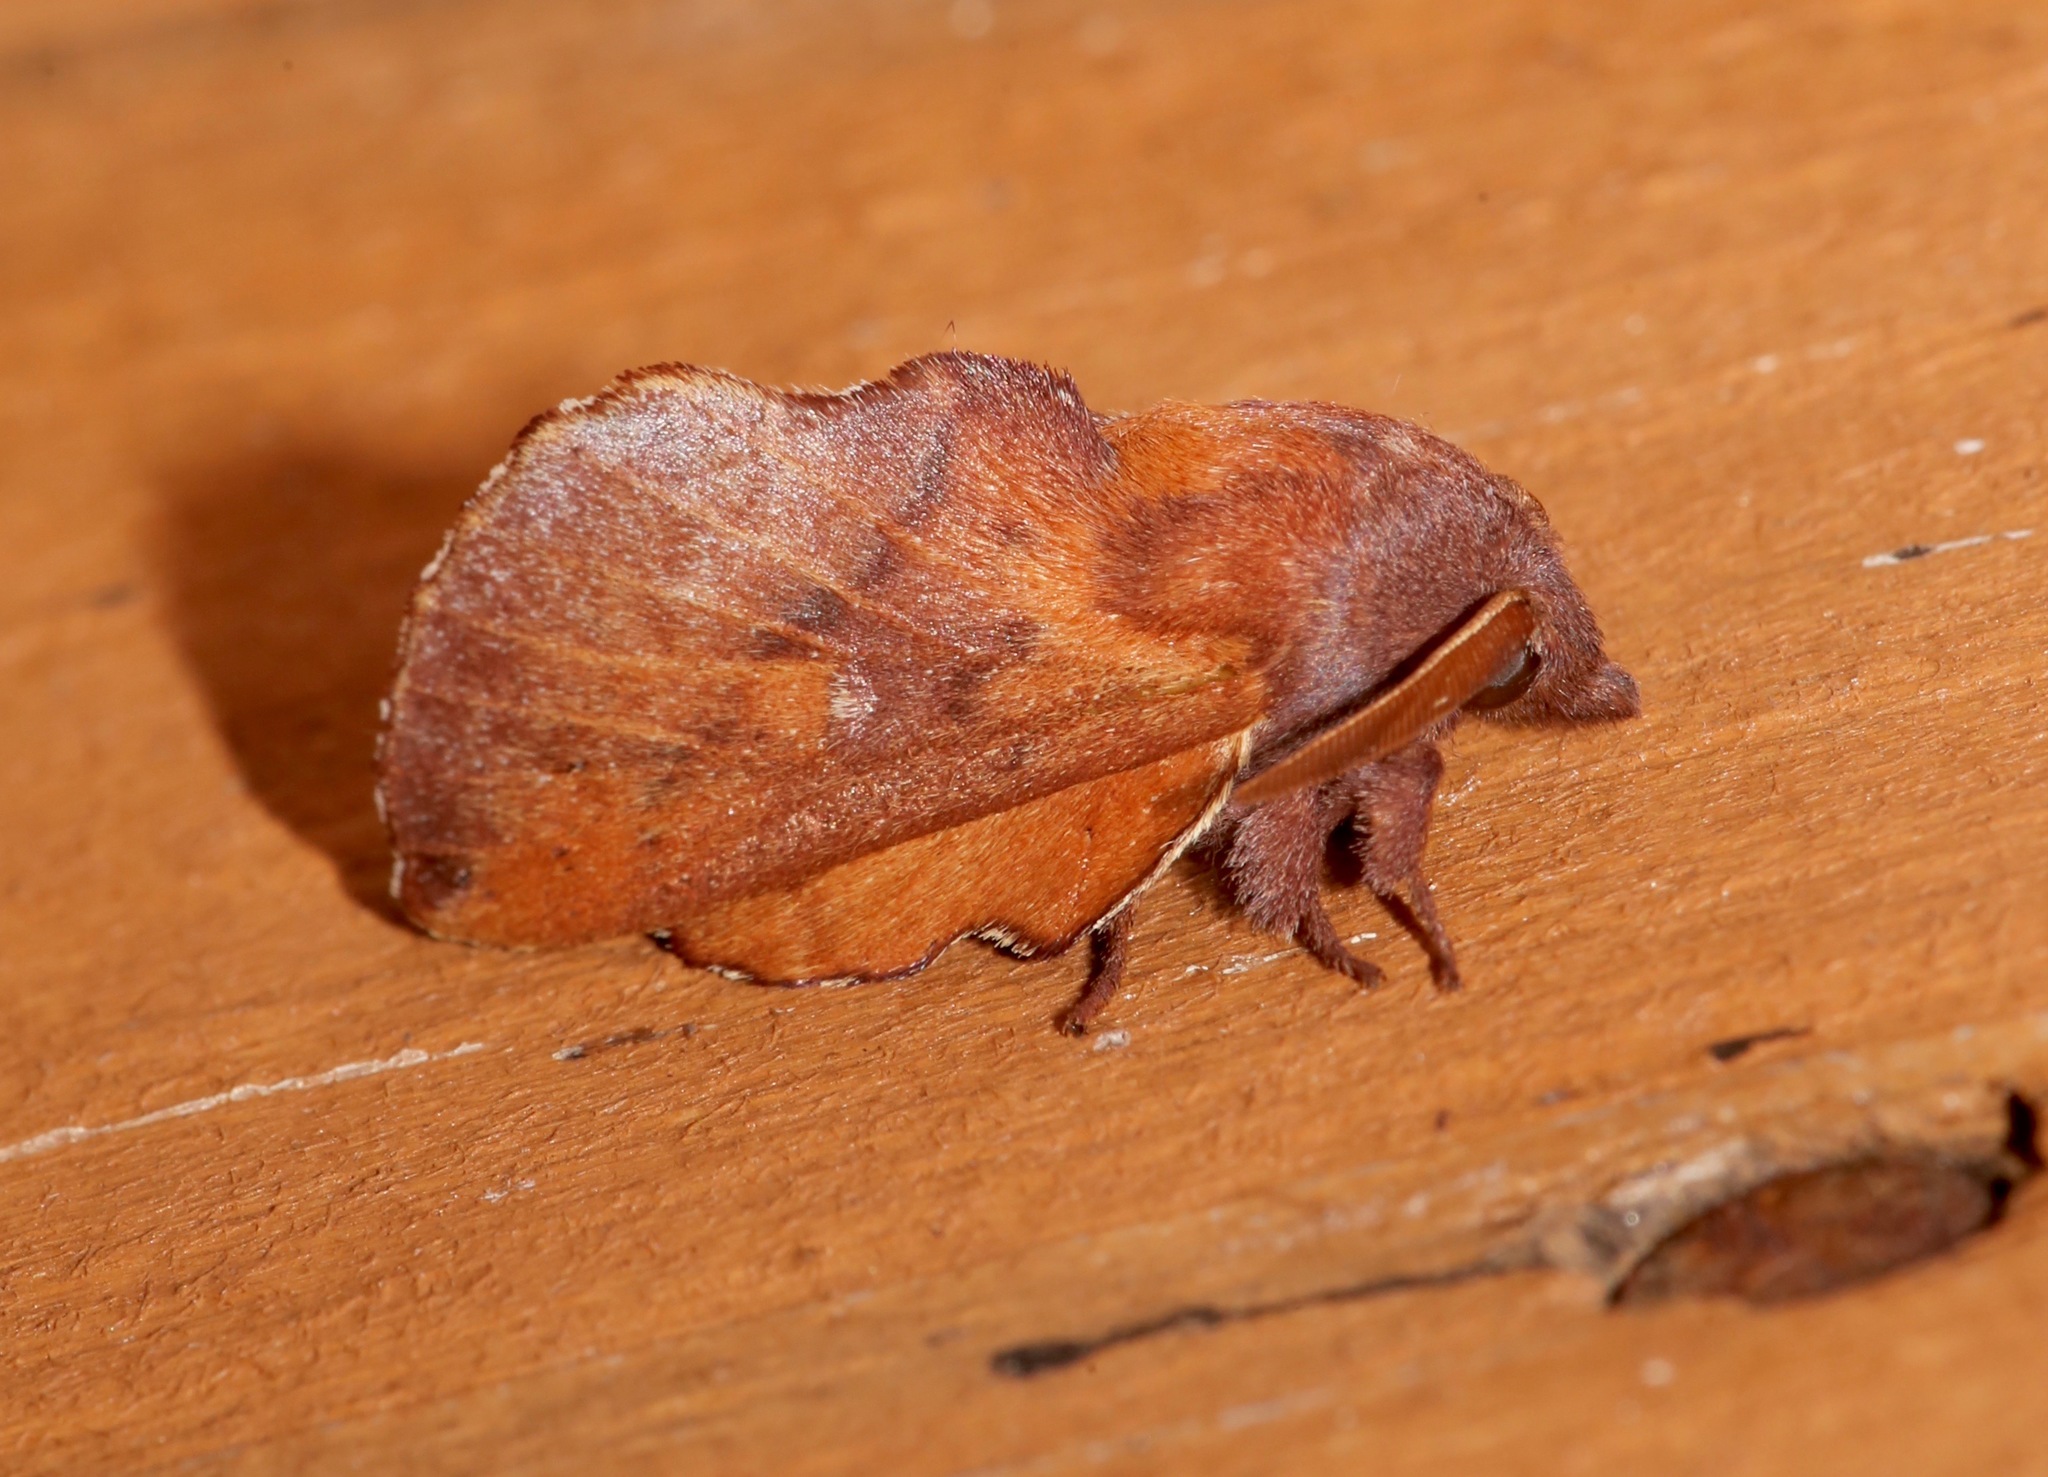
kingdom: Animalia
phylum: Arthropoda
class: Insecta
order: Lepidoptera
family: Lasiocampidae
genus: Phyllodesma
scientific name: Phyllodesma americana
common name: American lappet moth
